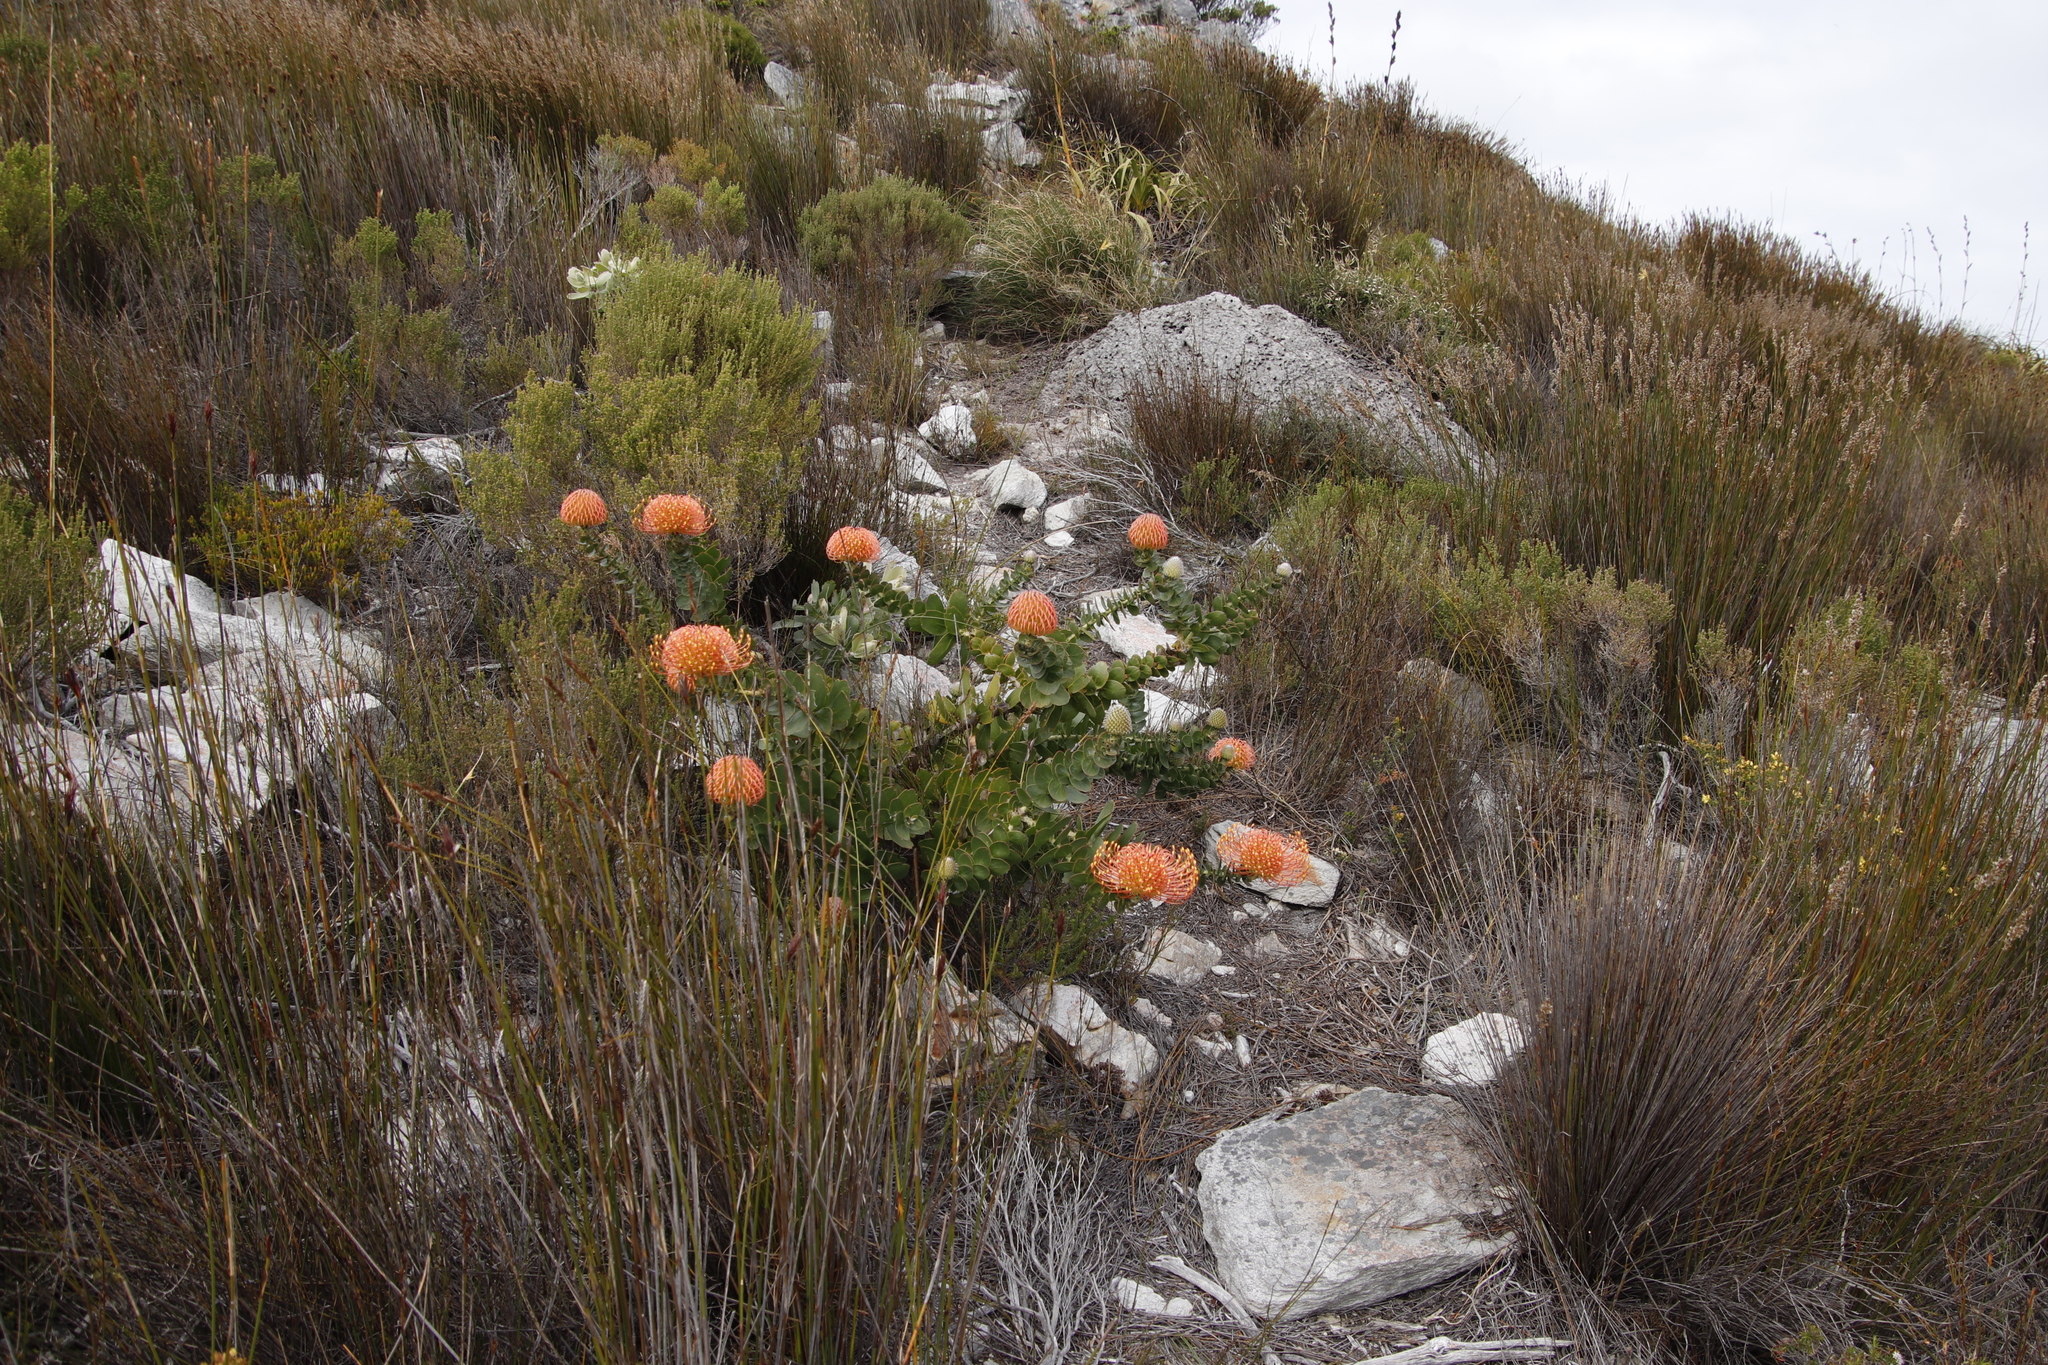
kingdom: Plantae
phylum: Tracheophyta
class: Magnoliopsida
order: Proteales
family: Proteaceae
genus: Leucospermum
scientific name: Leucospermum cordifolium
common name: Red pincushion-protea
